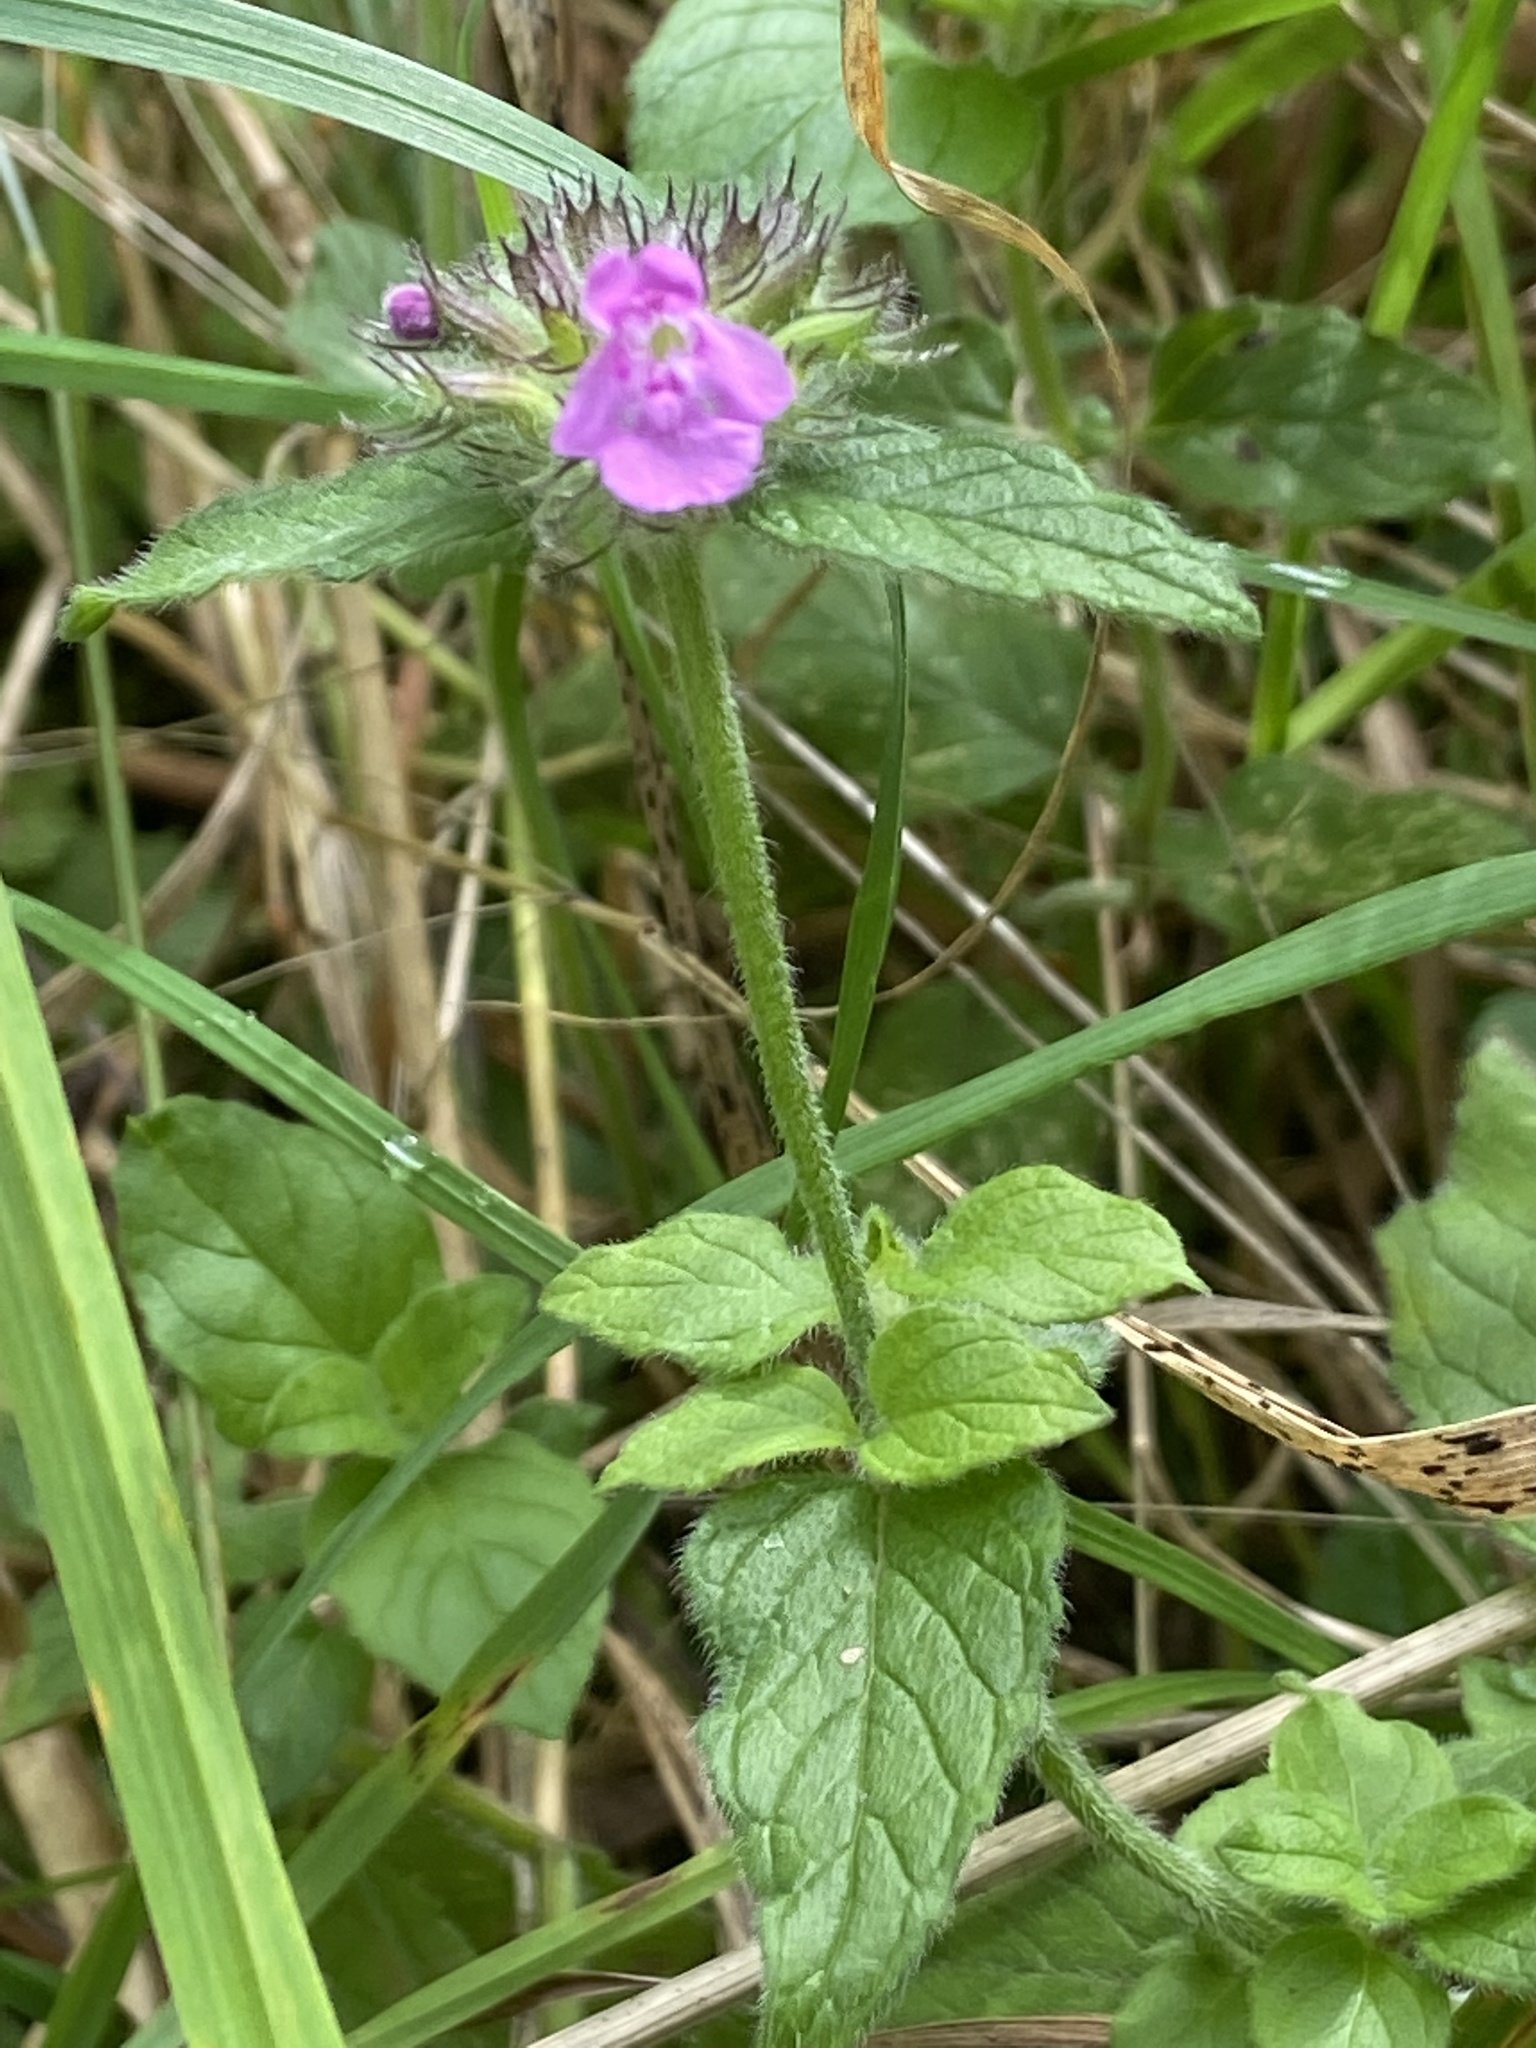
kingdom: Plantae
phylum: Tracheophyta
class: Magnoliopsida
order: Lamiales
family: Lamiaceae
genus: Clinopodium
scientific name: Clinopodium vulgare
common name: Wild basil
